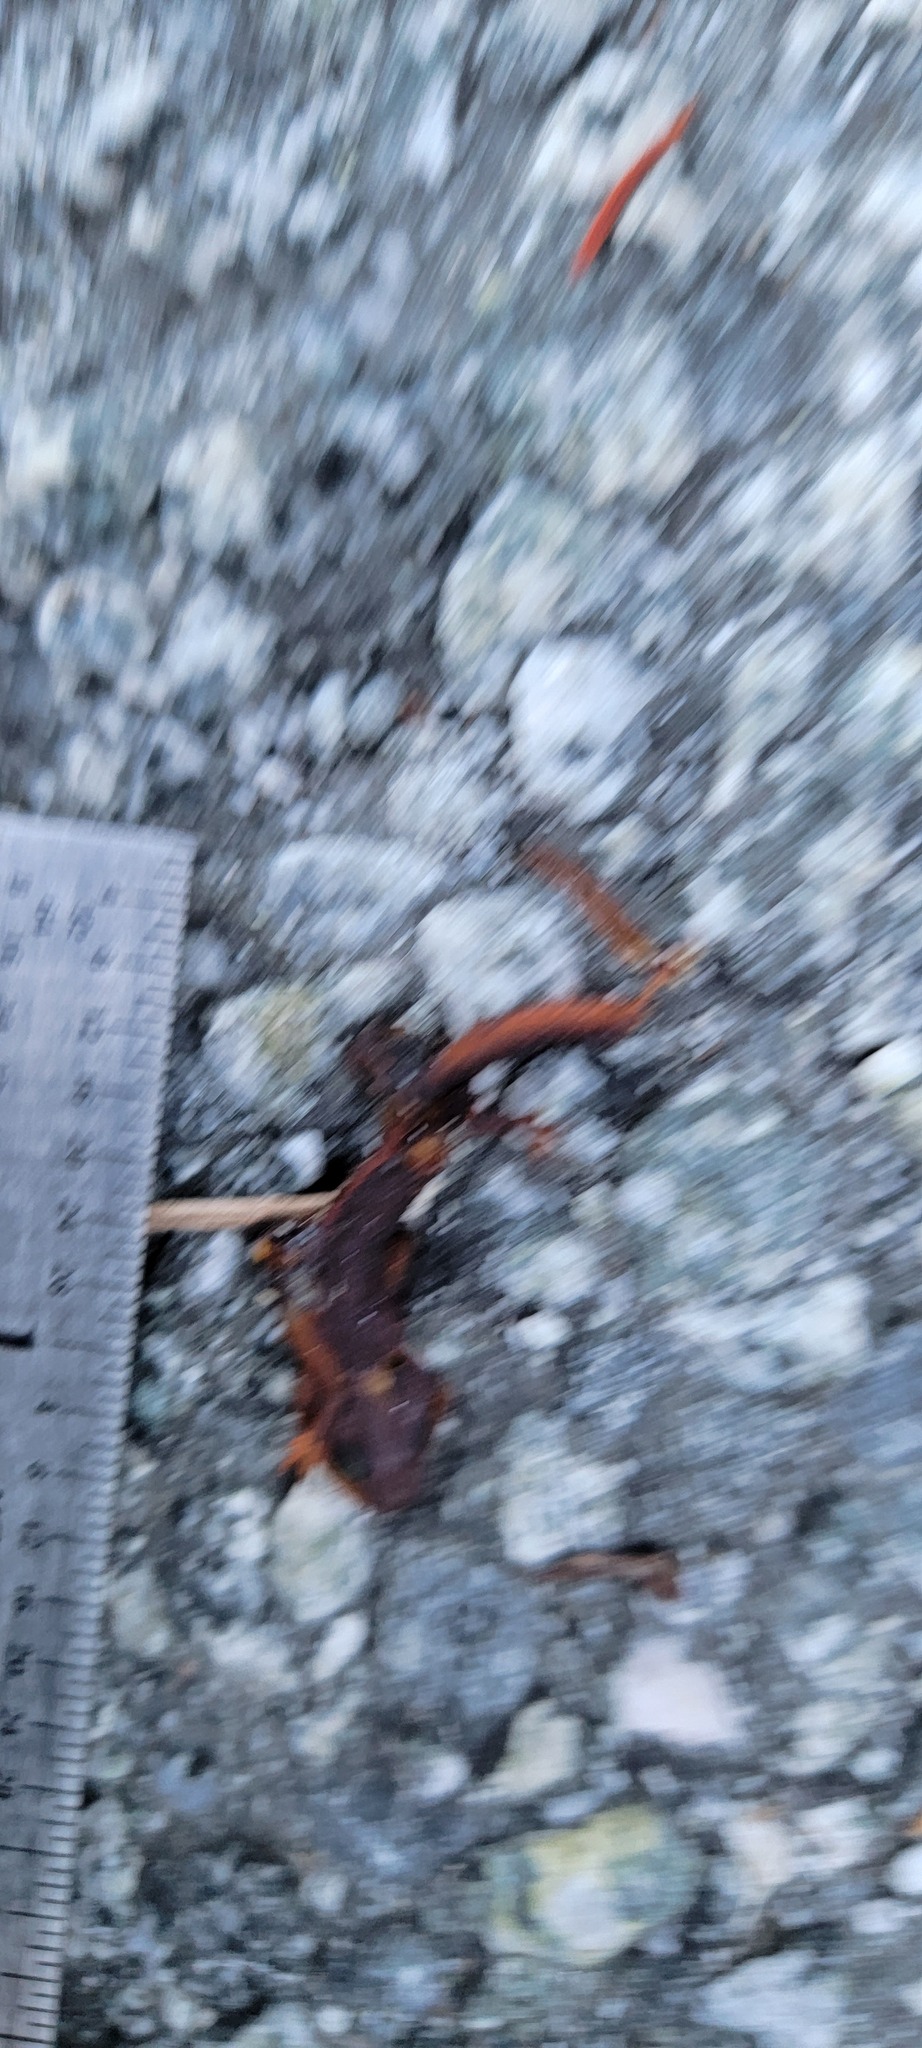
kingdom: Animalia
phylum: Chordata
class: Amphibia
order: Caudata
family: Salamandridae
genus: Taricha
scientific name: Taricha
